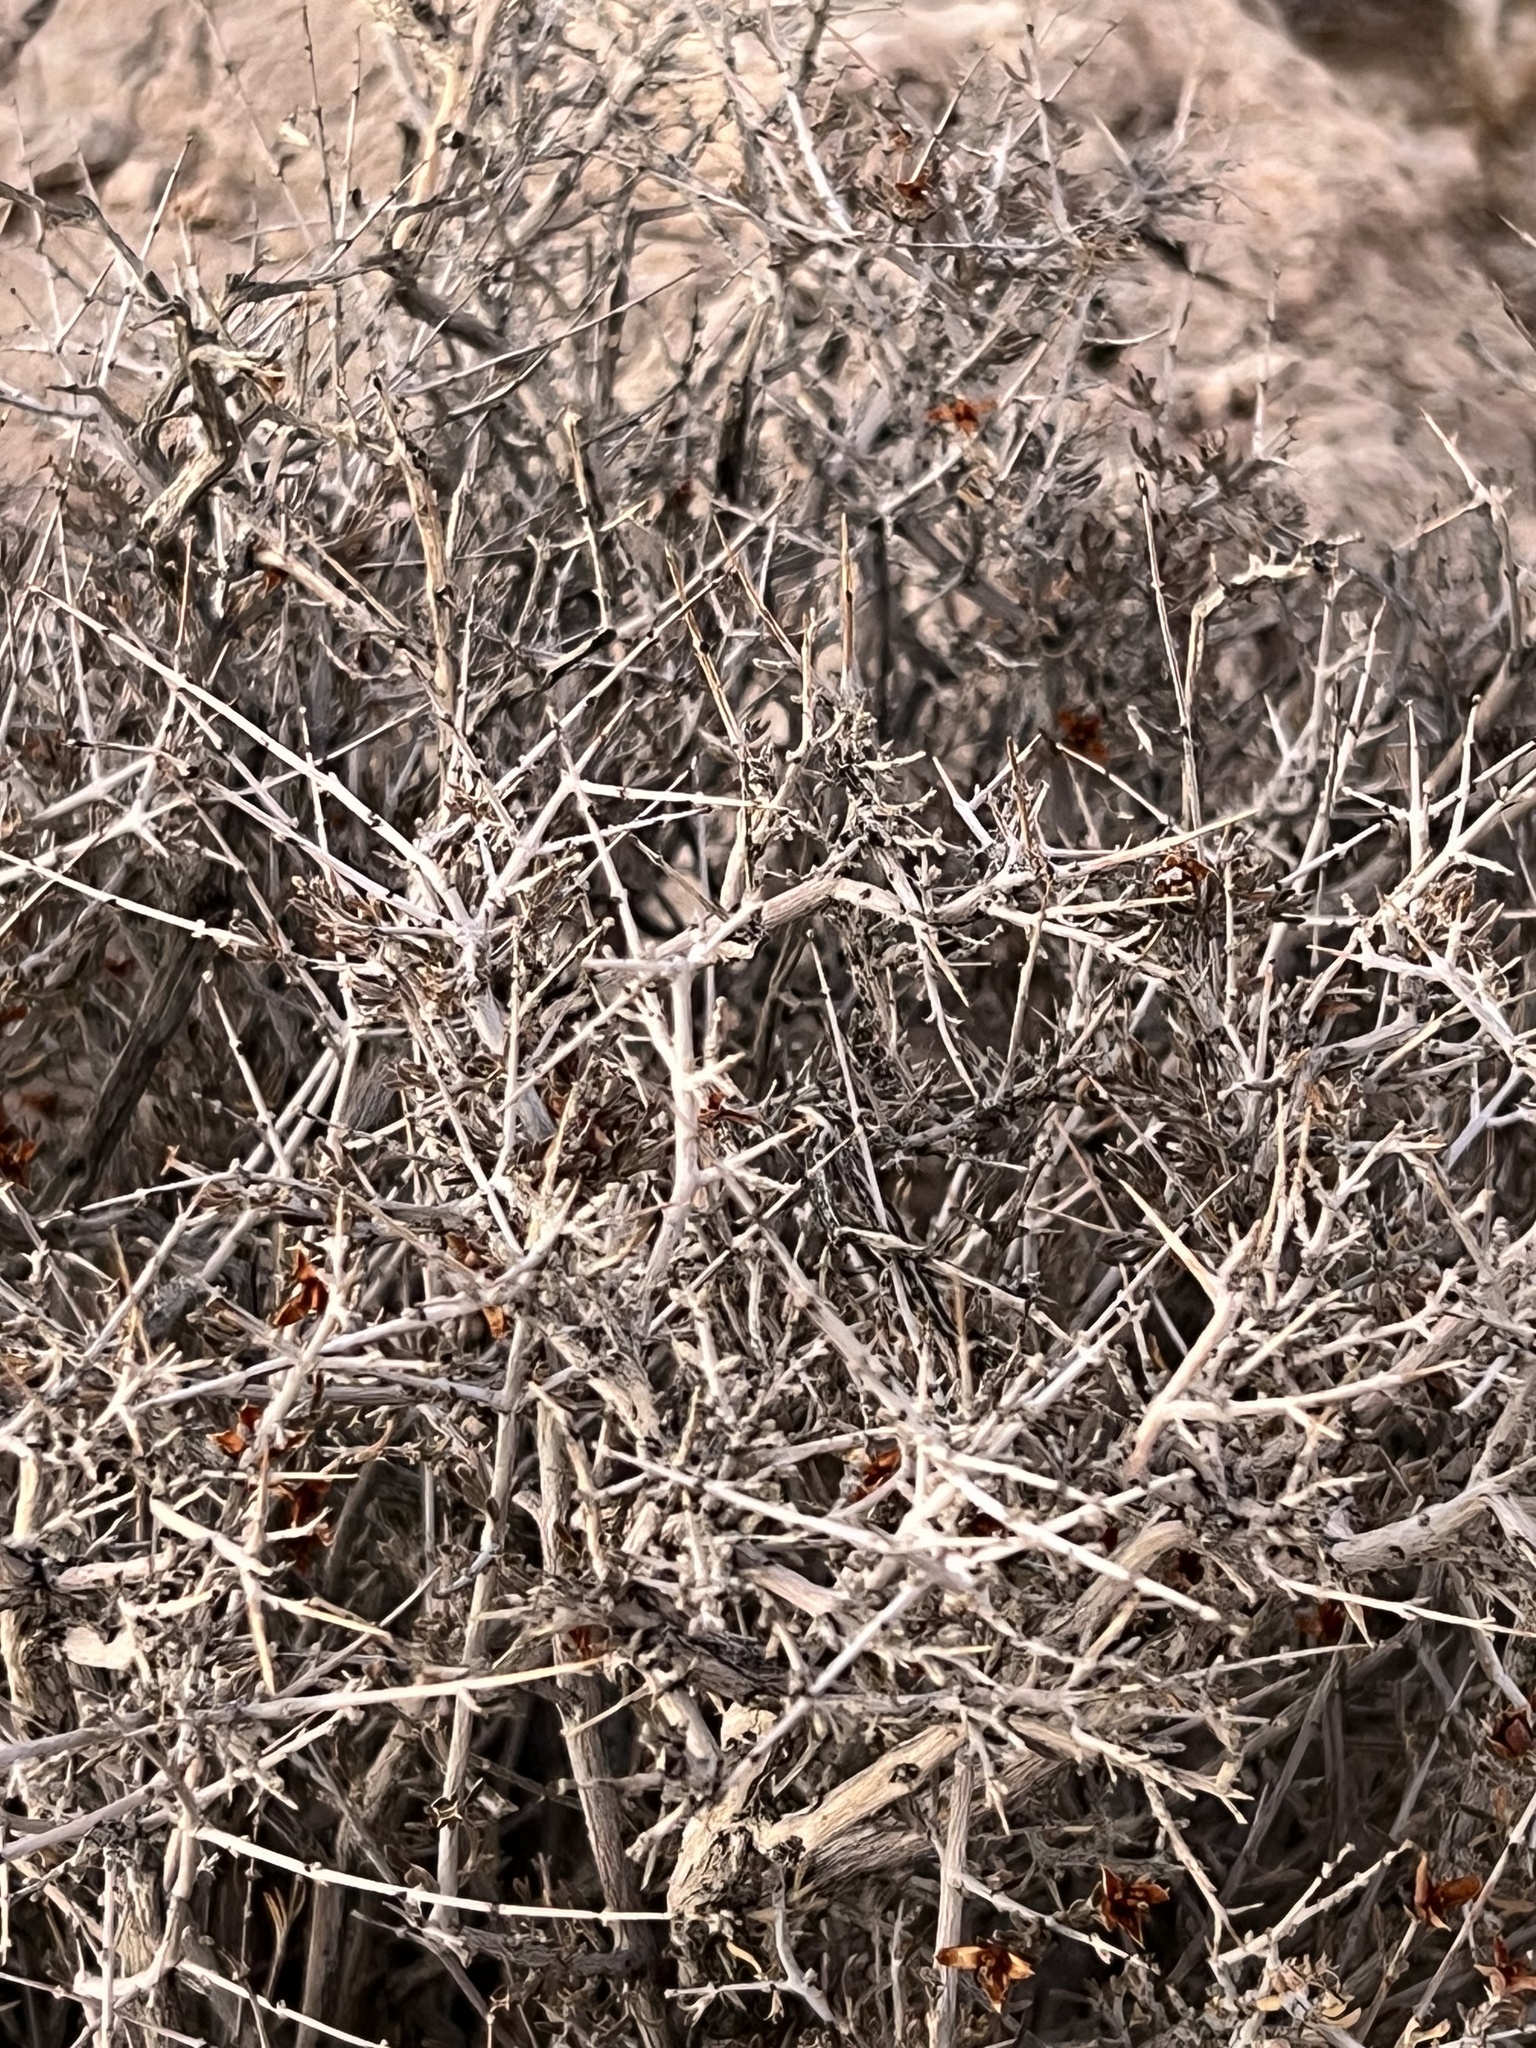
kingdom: Plantae
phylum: Tracheophyta
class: Magnoliopsida
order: Rosales
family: Rosaceae
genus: Coleogyne
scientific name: Coleogyne ramosissima
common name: Blackbrush
